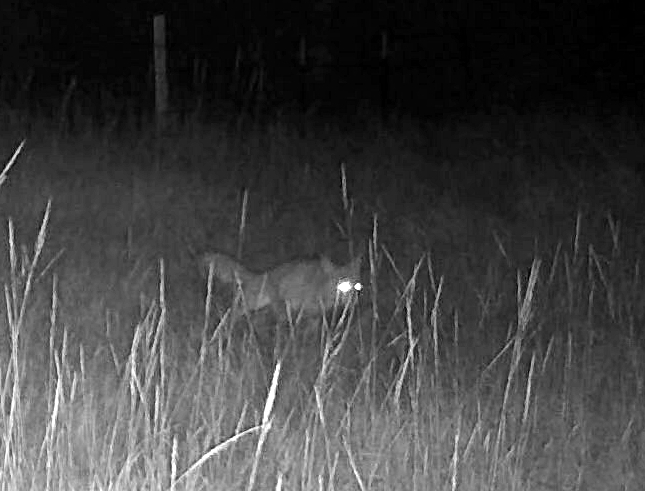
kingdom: Animalia
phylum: Chordata
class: Mammalia
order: Carnivora
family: Canidae
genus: Canis
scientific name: Canis latrans
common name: Coyote
